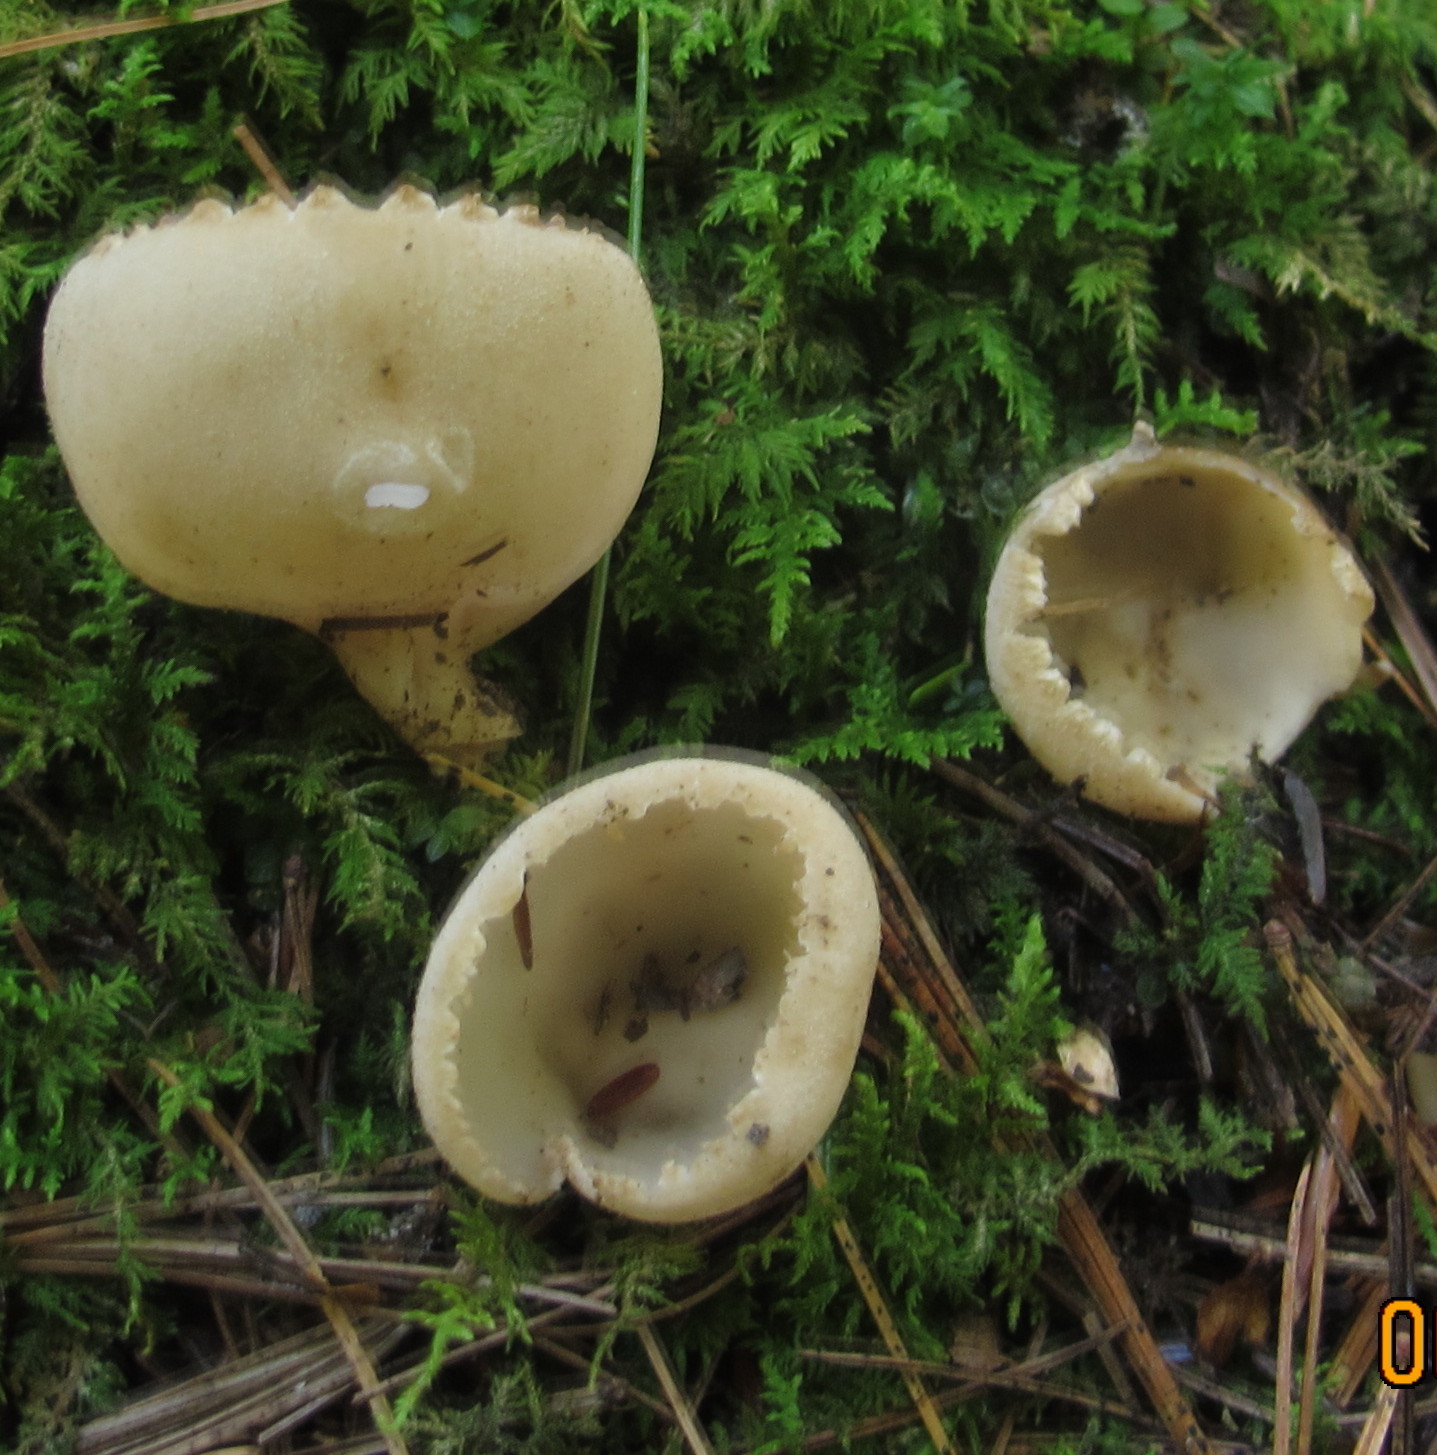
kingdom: Fungi
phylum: Ascomycota
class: Pezizomycetes
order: Pezizales
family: Tarzettaceae
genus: Tarzetta
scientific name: Tarzetta cupularis
